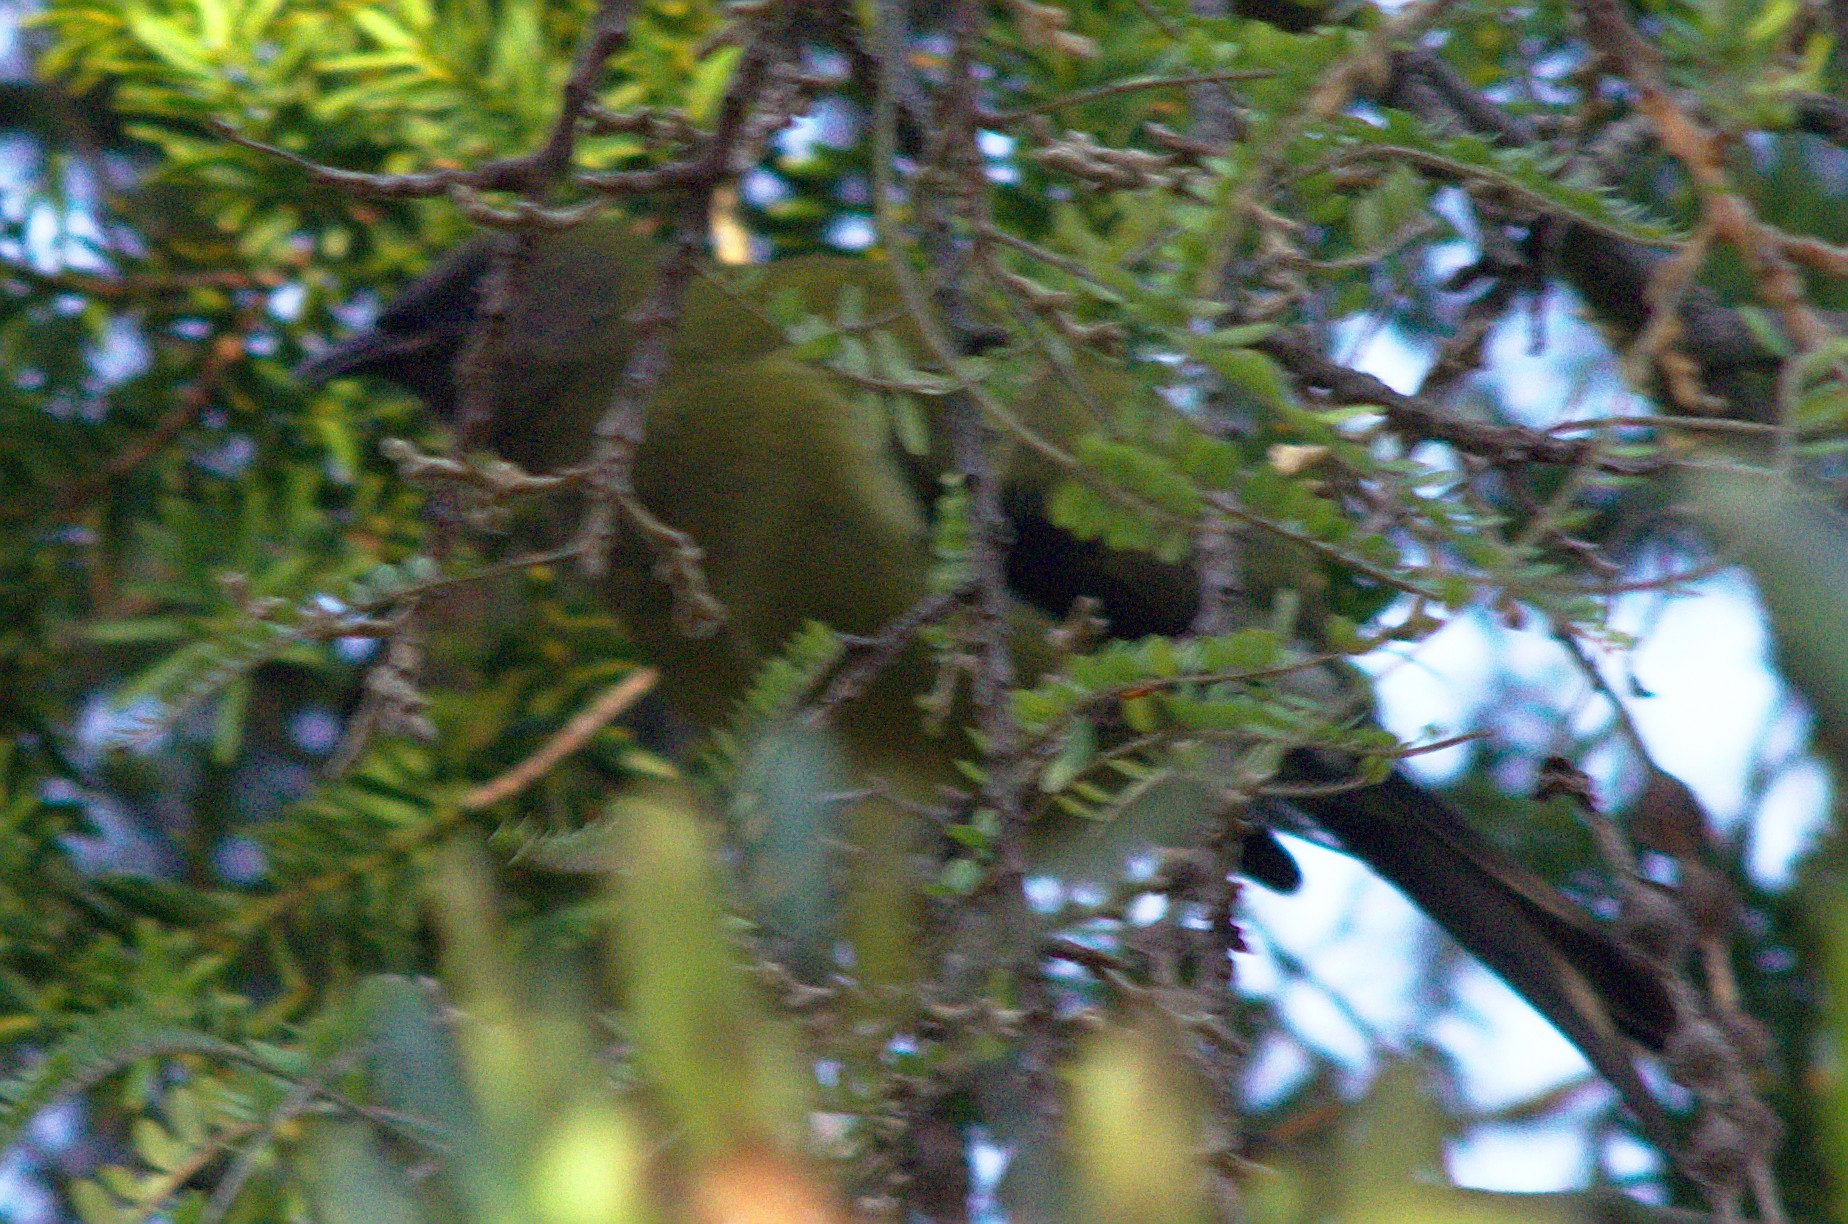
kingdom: Animalia
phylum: Chordata
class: Aves
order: Passeriformes
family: Meliphagidae
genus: Anthornis
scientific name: Anthornis melanura
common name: New zealand bellbird
